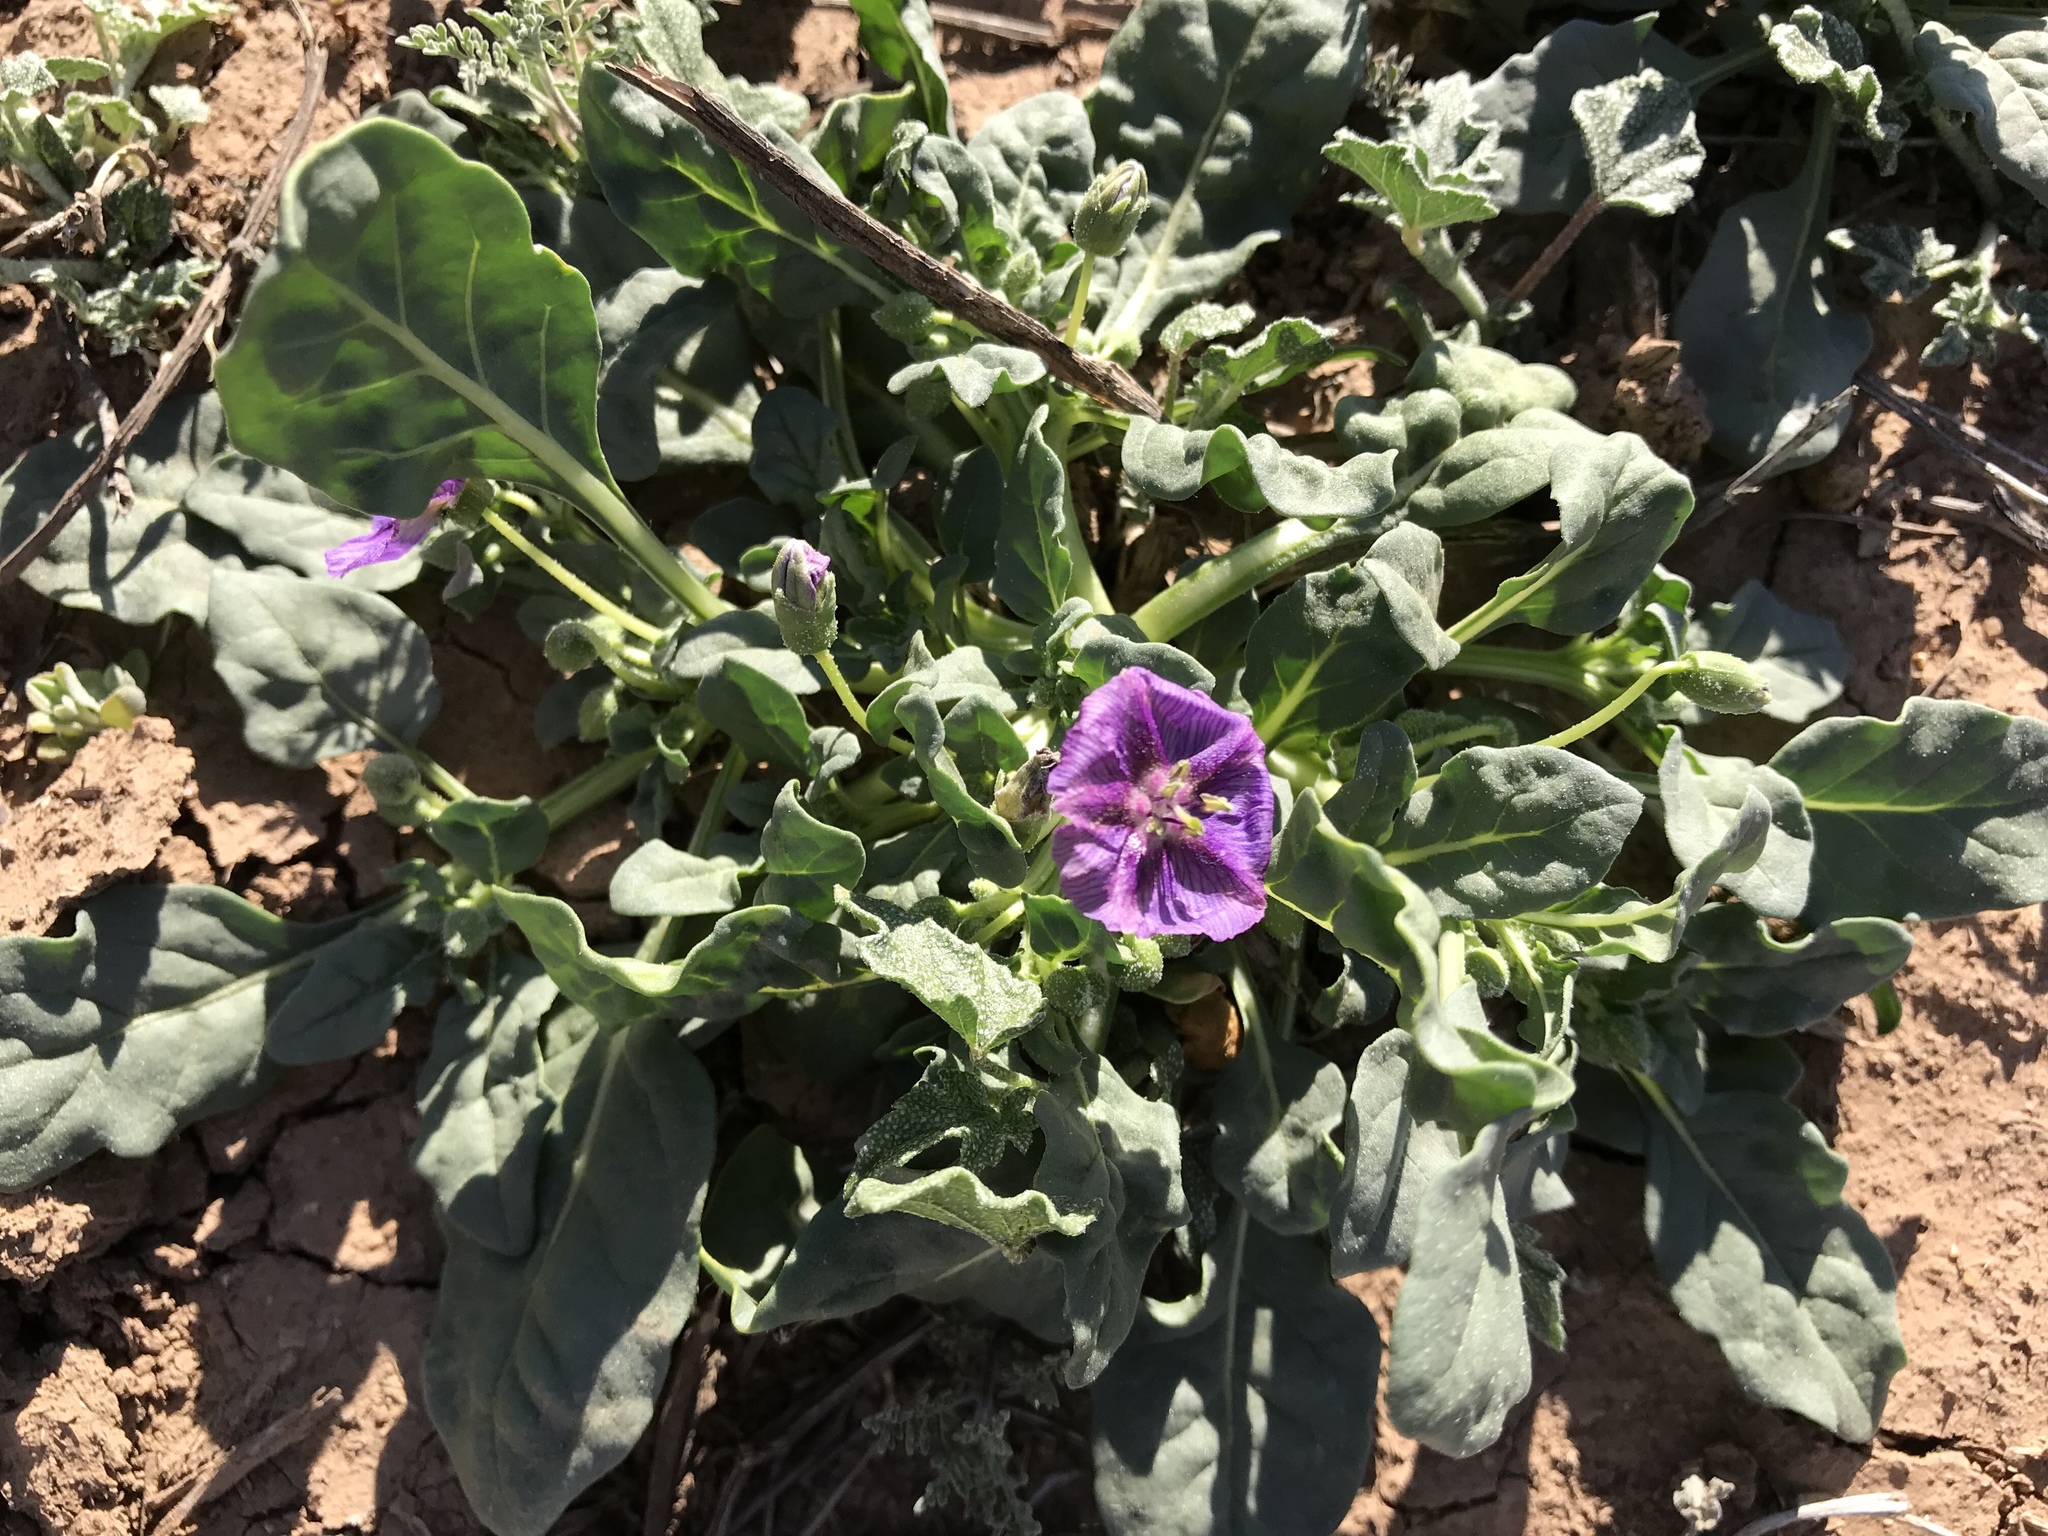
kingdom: Plantae
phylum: Tracheophyta
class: Magnoliopsida
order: Solanales
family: Solanaceae
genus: Quincula
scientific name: Quincula lobata
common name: Purple-ground-cherry
